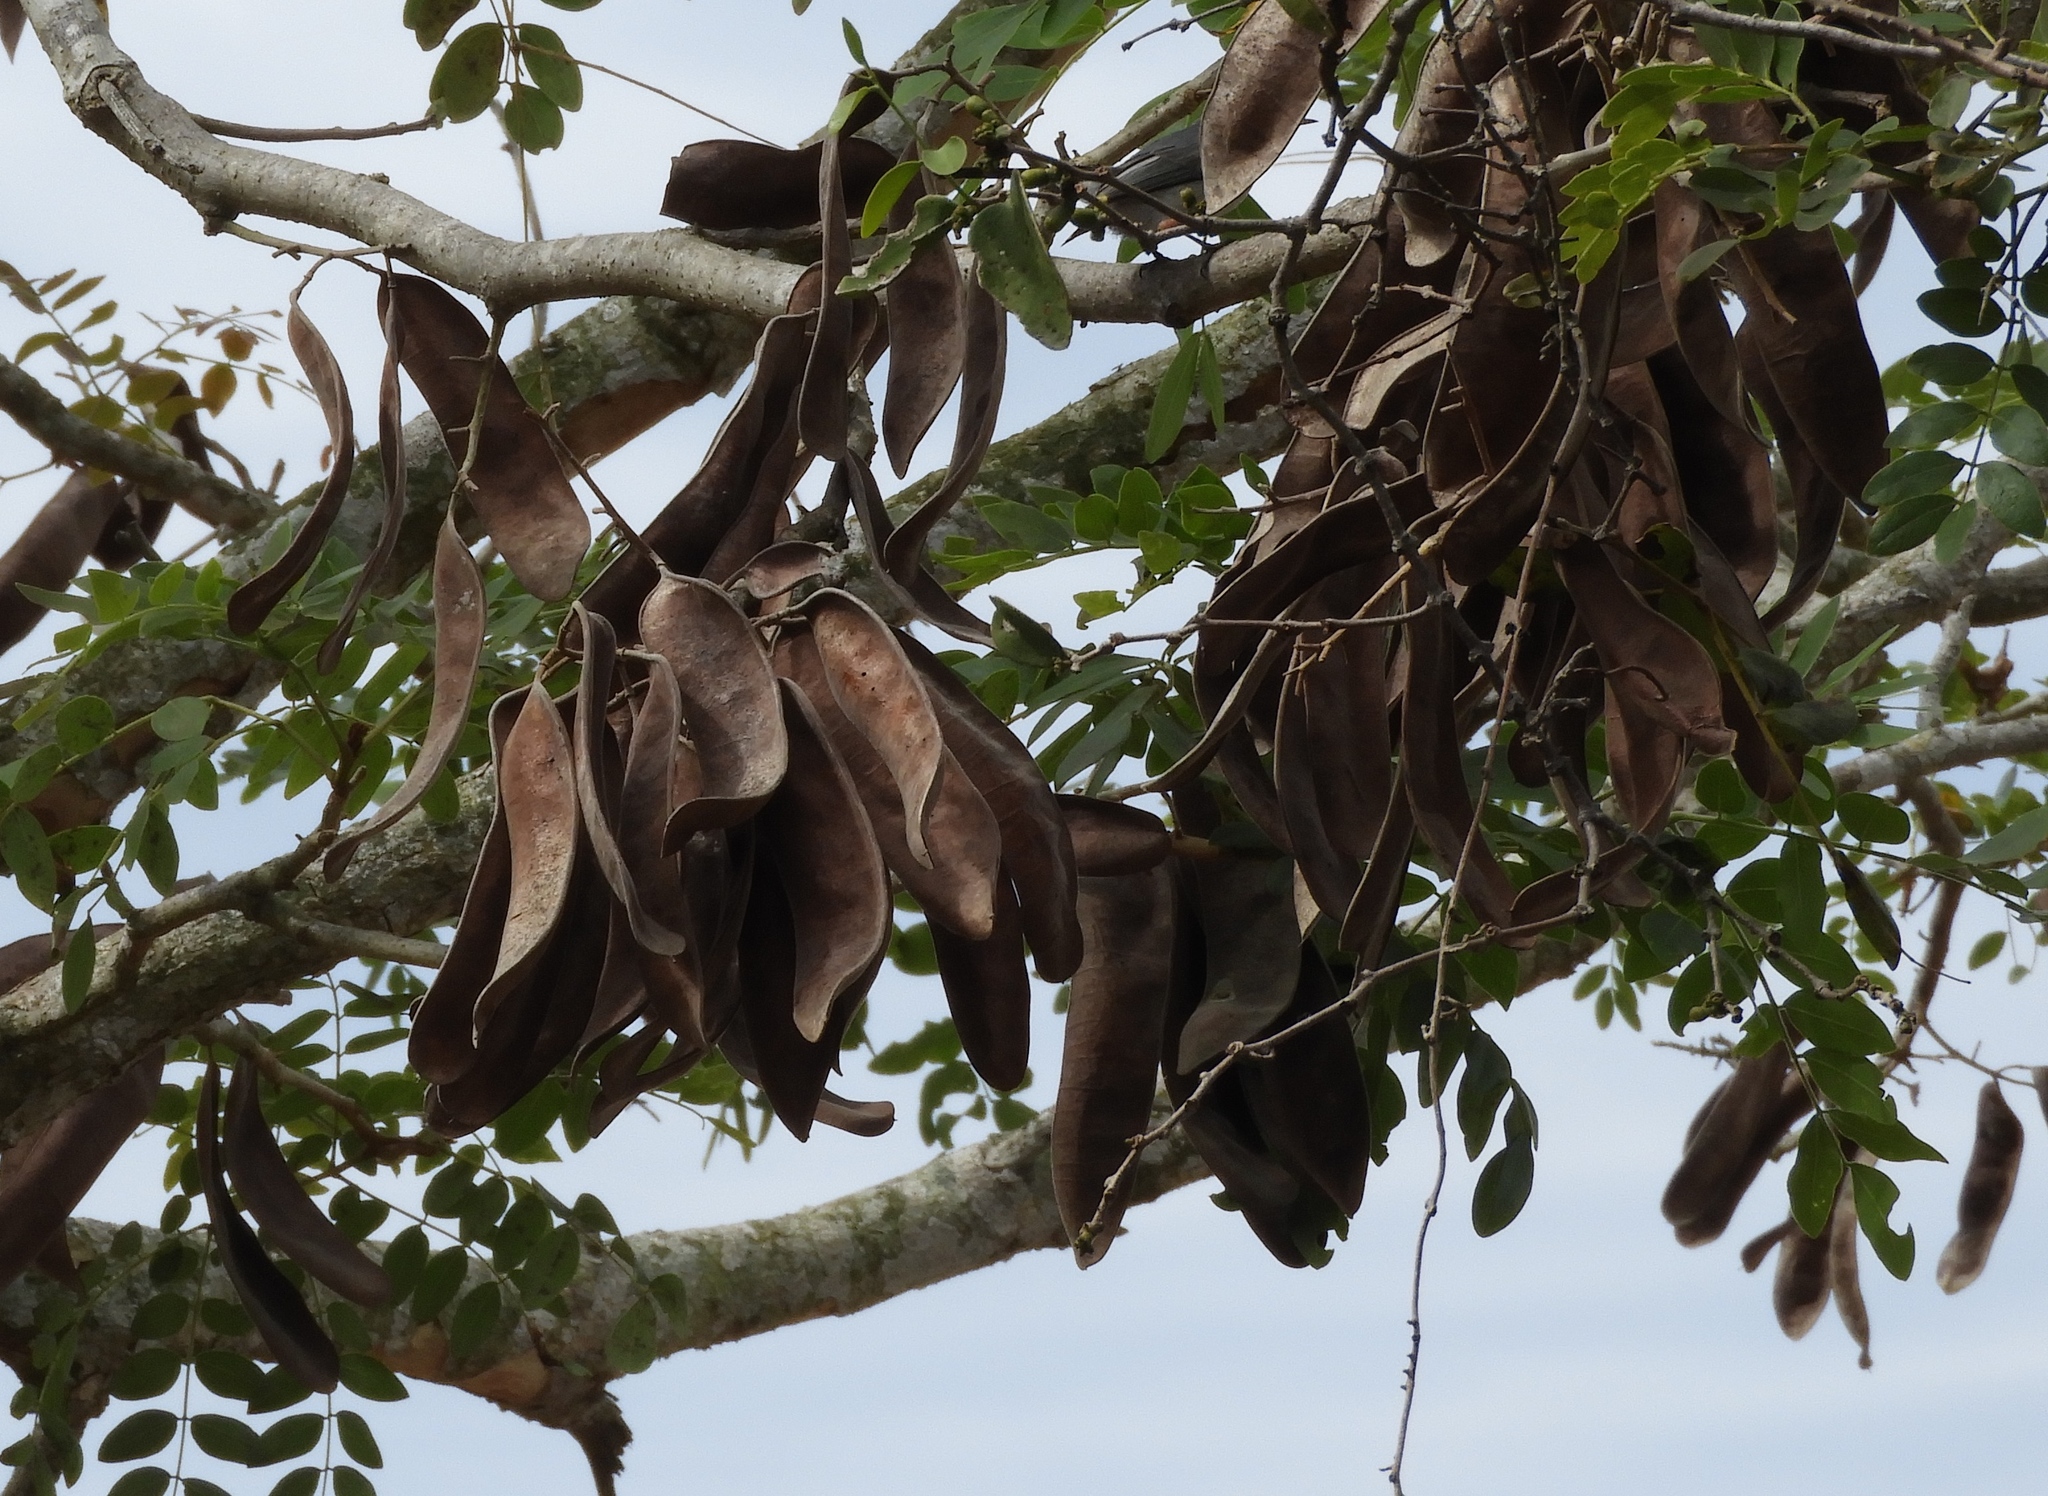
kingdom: Plantae
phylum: Tracheophyta
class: Magnoliopsida
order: Fabales
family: Fabaceae
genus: Coulteria
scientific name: Coulteria platyloba
